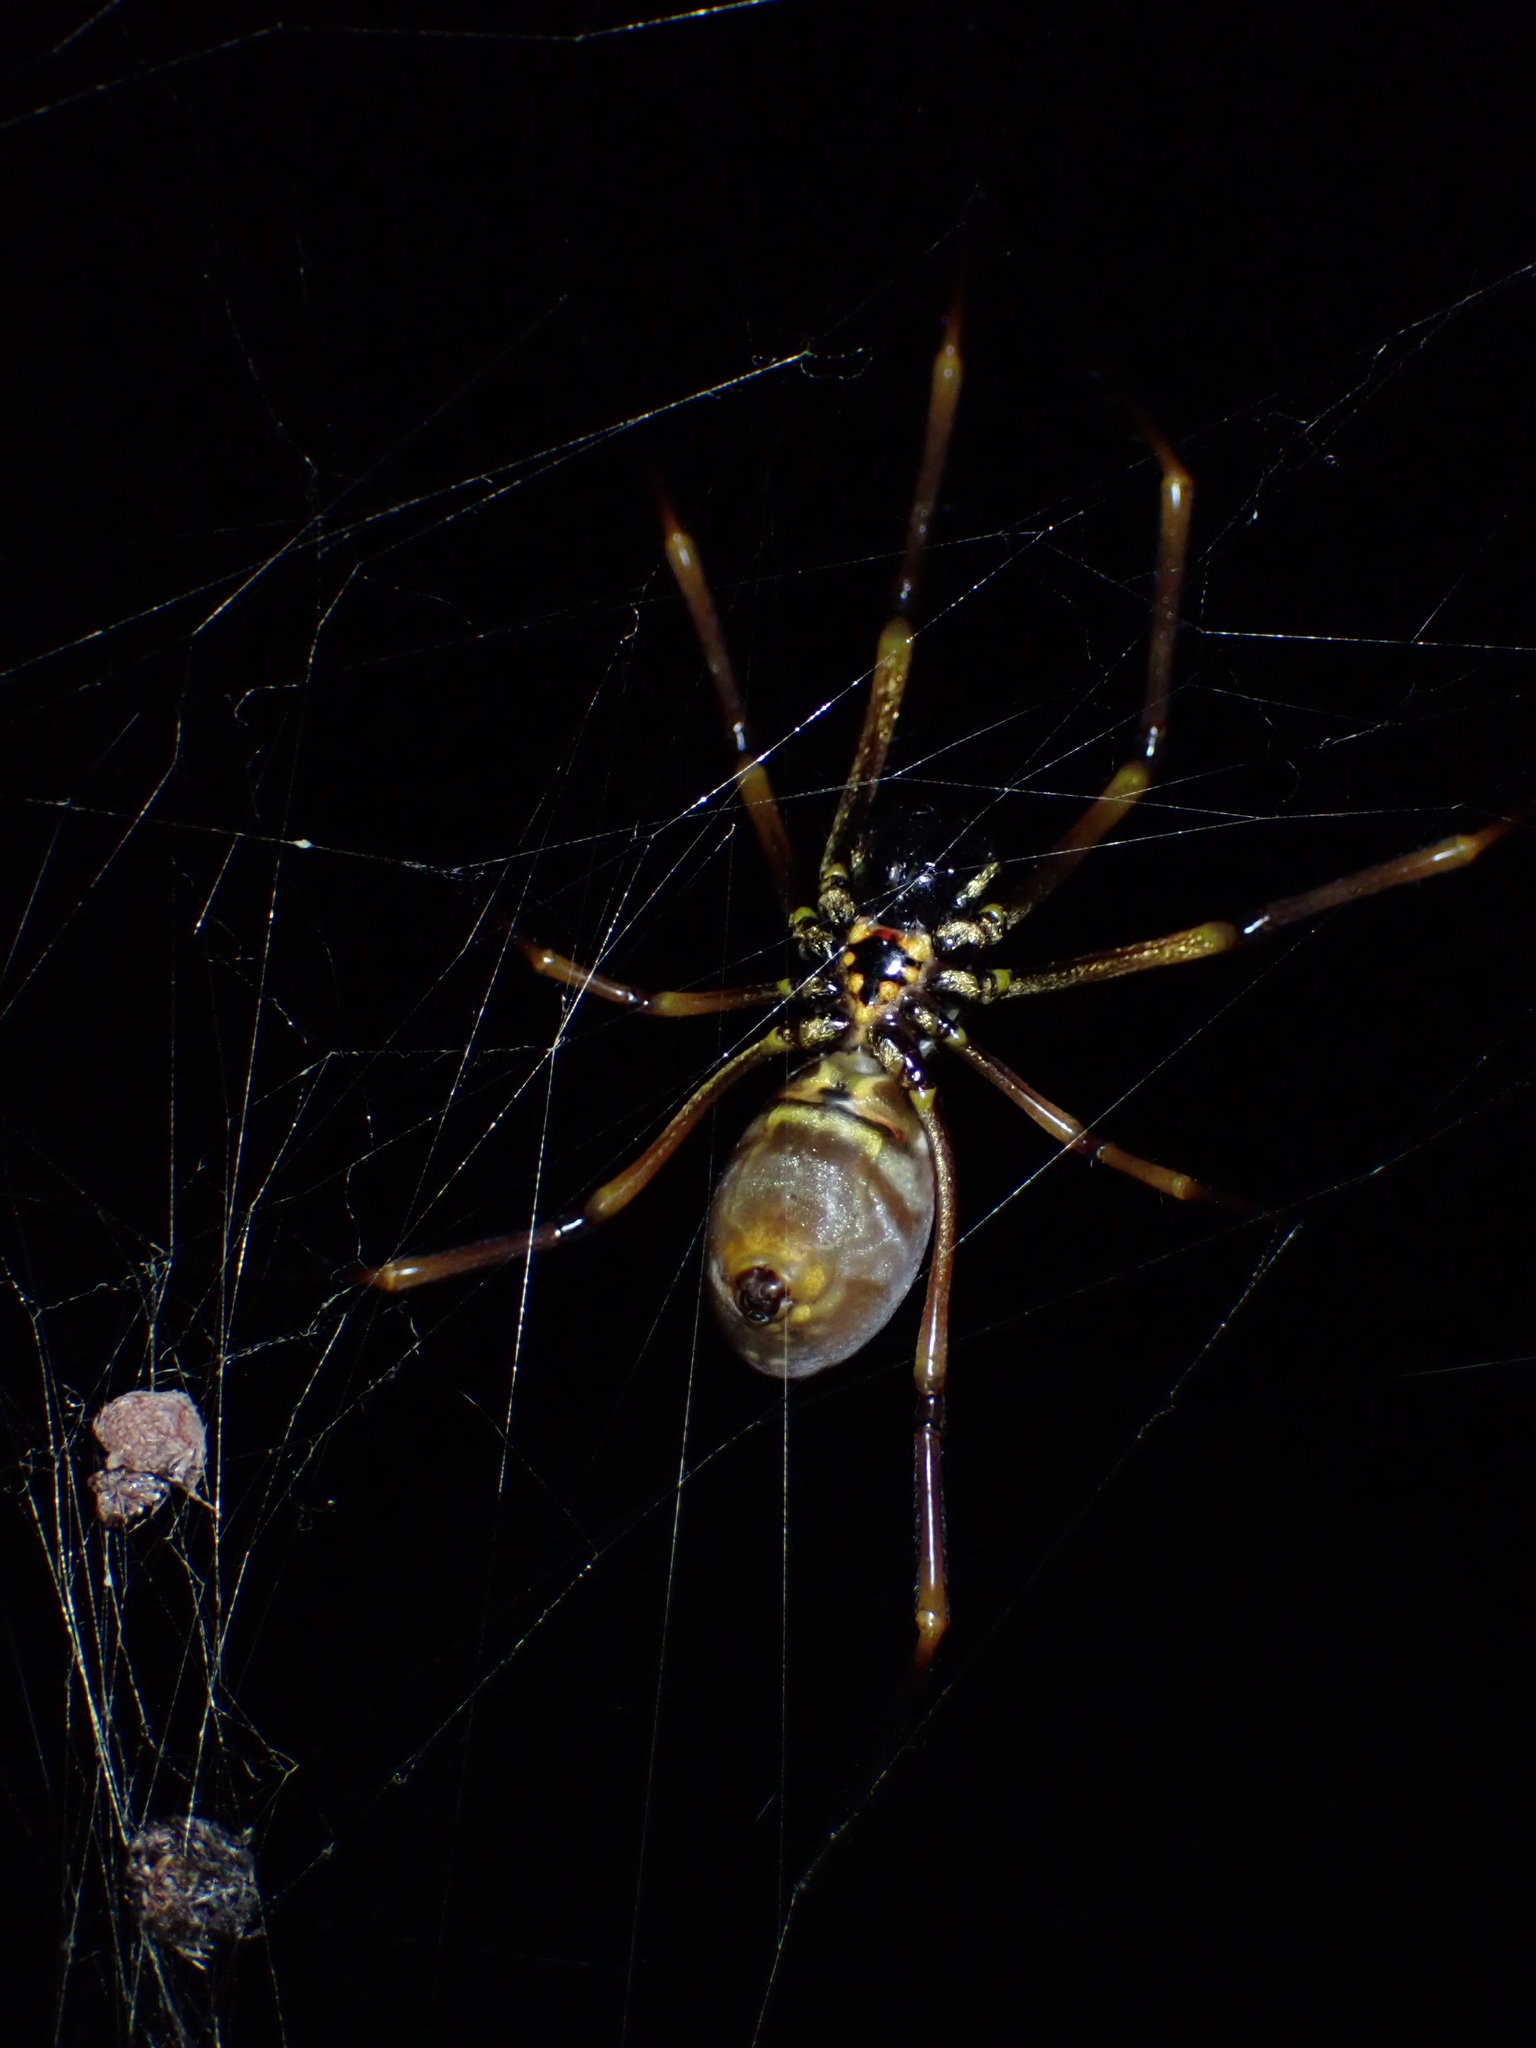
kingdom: Animalia
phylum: Arthropoda
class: Arachnida
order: Araneae
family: Araneidae
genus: Trichonephila
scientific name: Trichonephila plumipes
